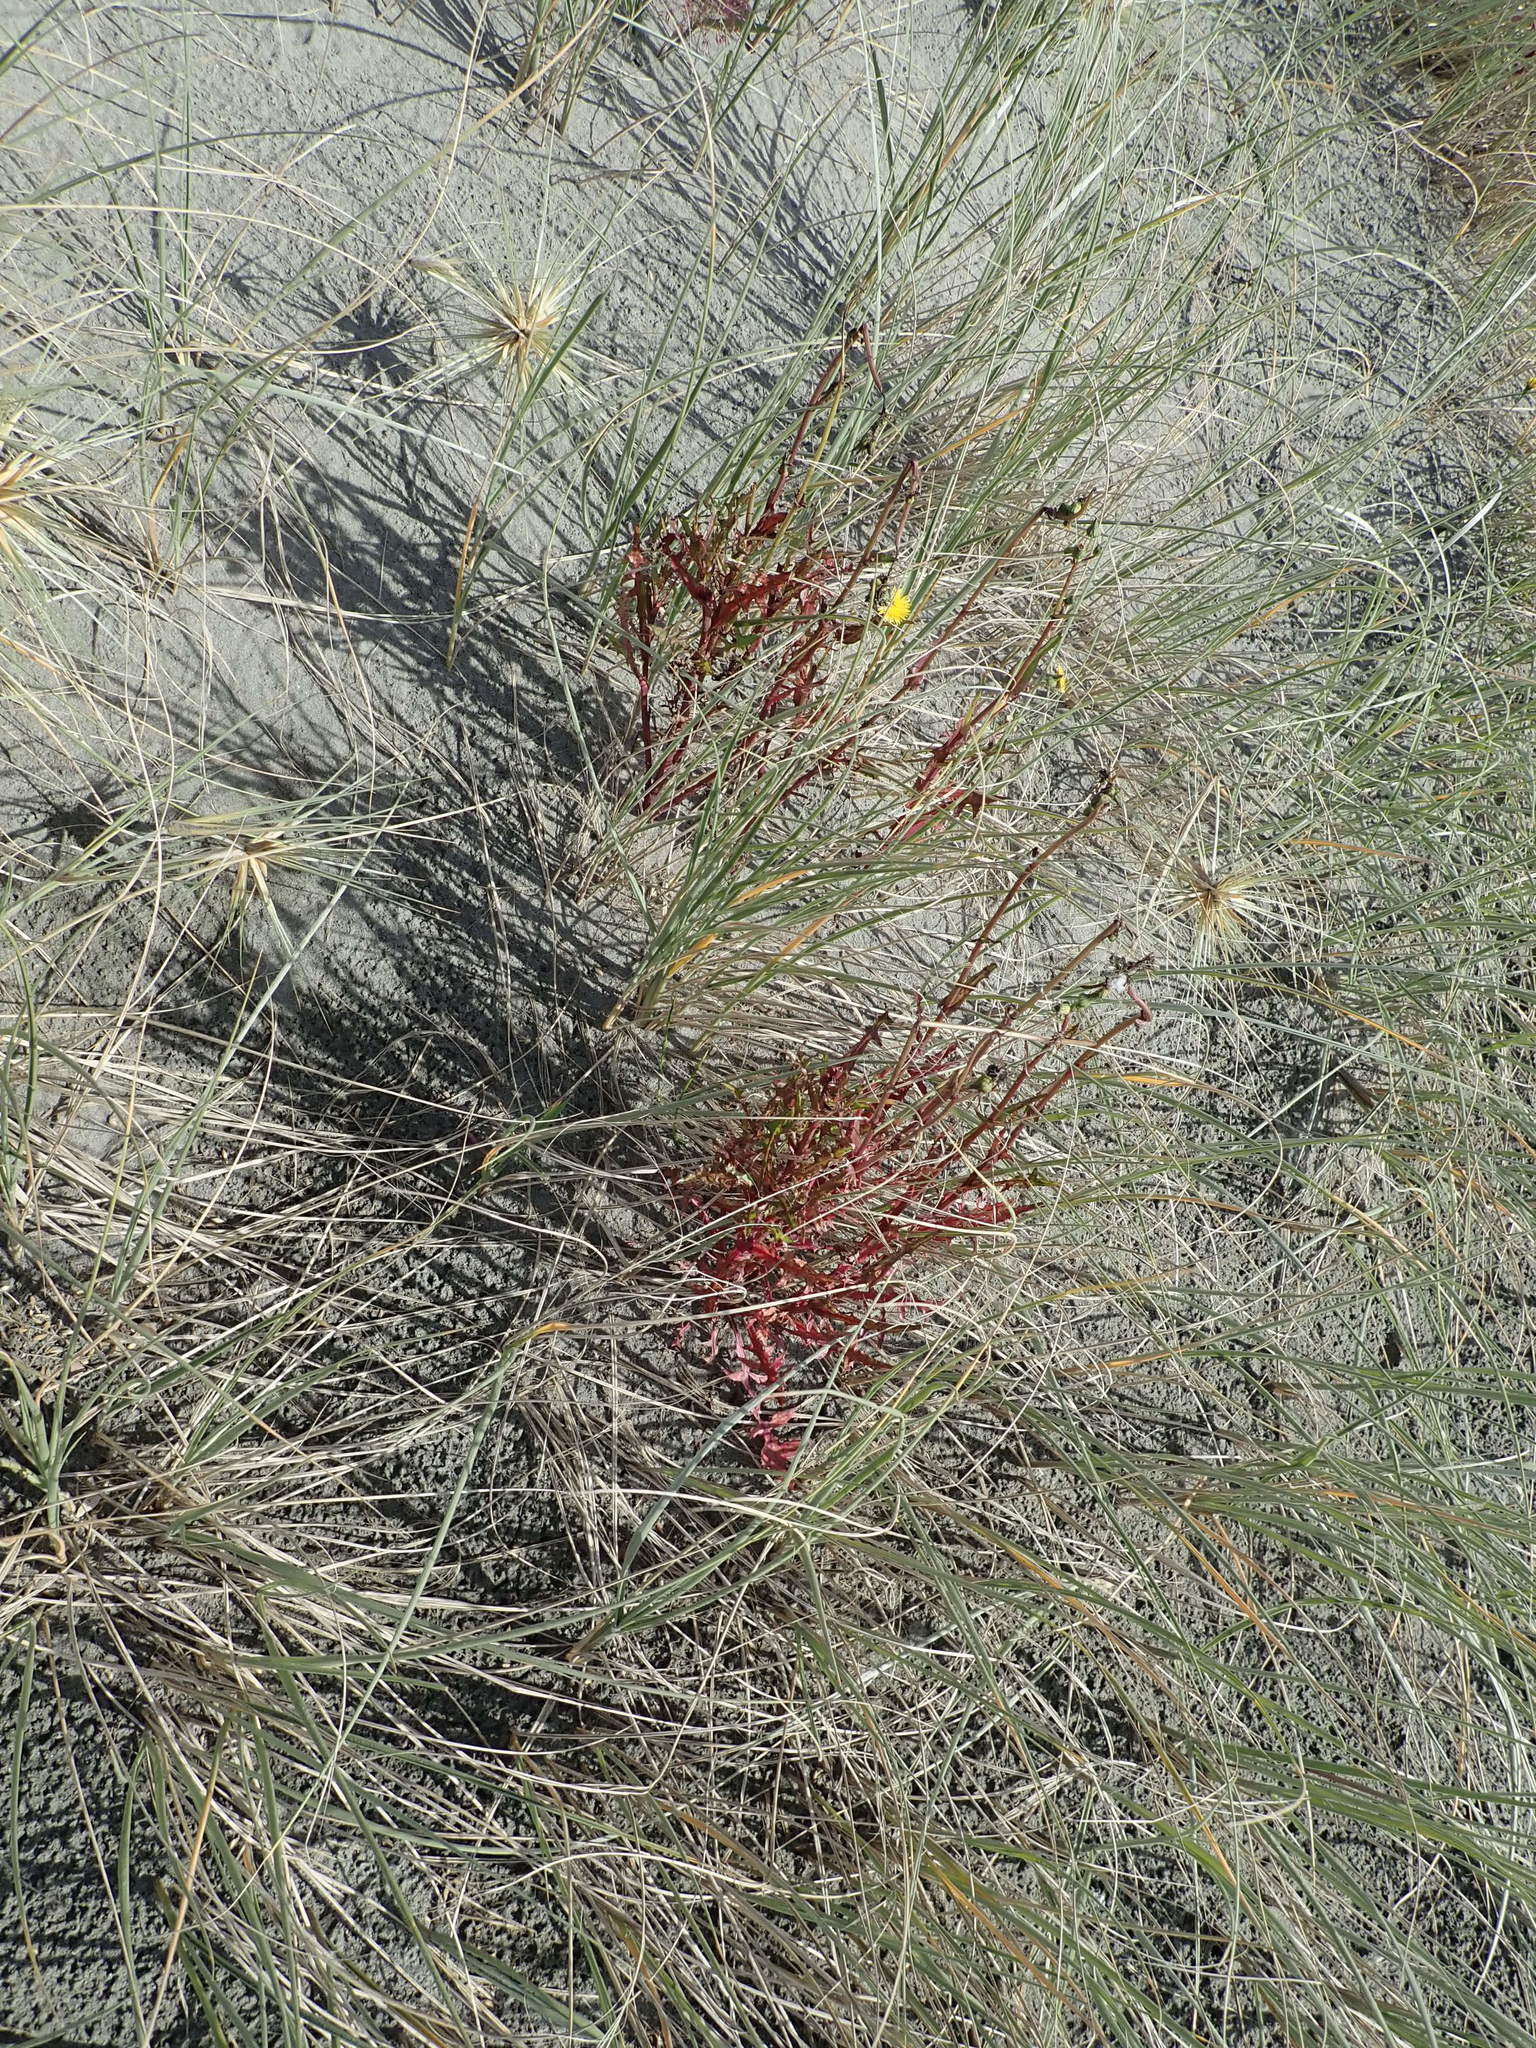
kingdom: Plantae
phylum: Tracheophyta
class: Magnoliopsida
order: Asterales
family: Asteraceae
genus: Sonchus
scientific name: Sonchus oleraceus
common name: Common sowthistle
